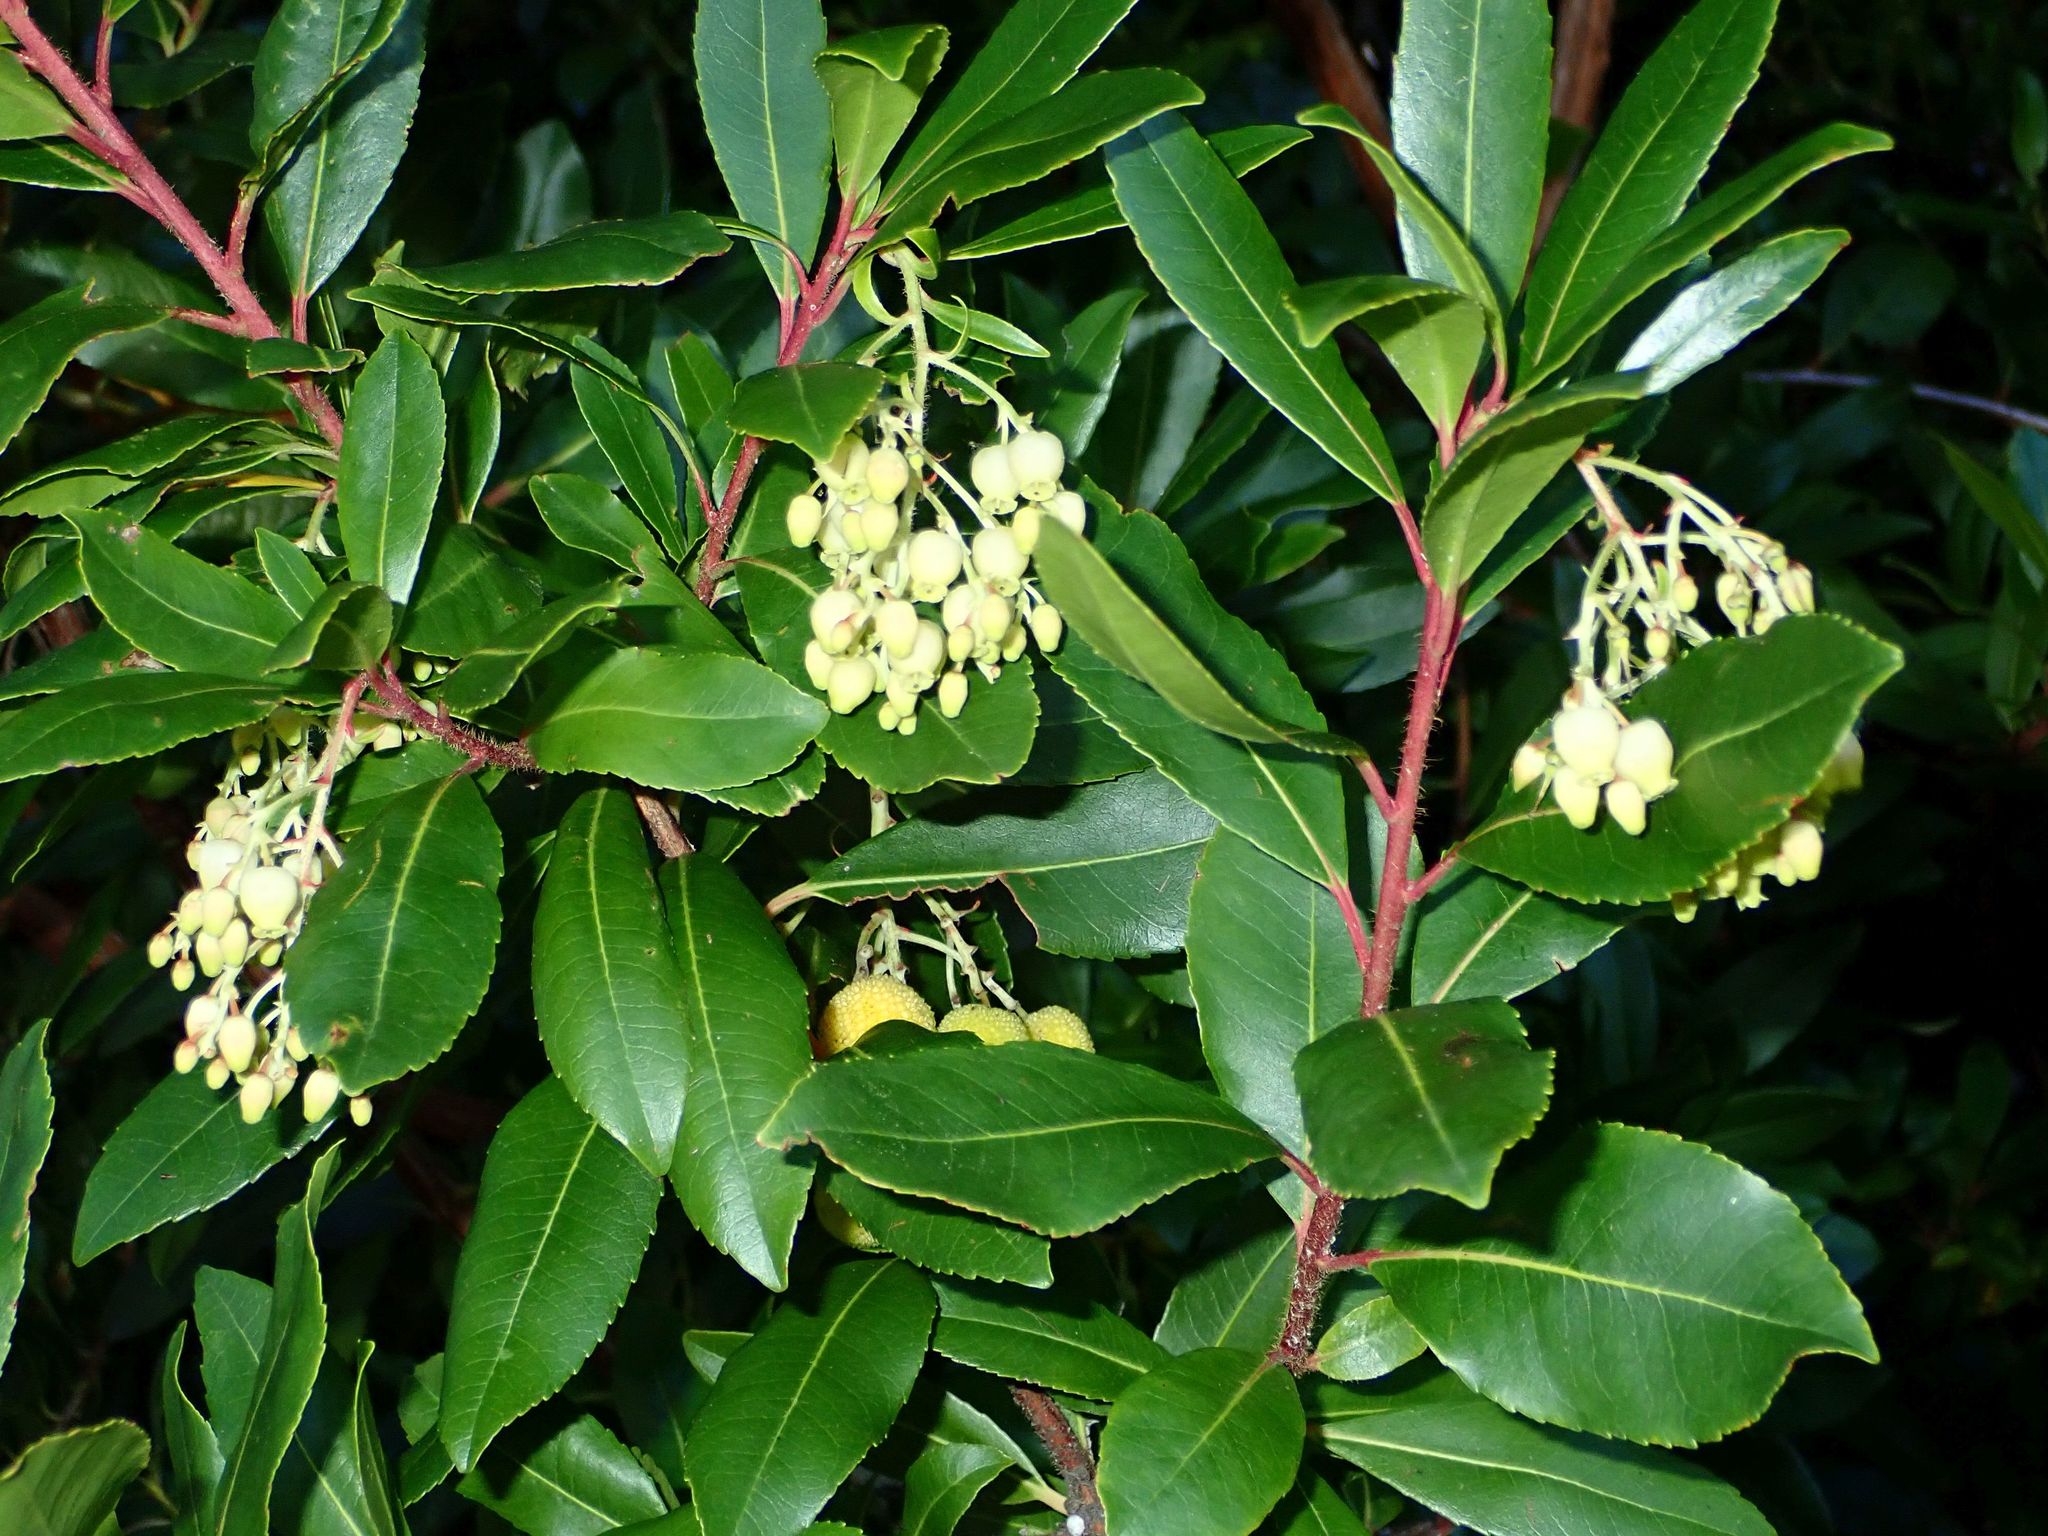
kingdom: Plantae
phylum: Tracheophyta
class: Magnoliopsida
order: Ericales
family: Ericaceae
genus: Arbutus
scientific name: Arbutus unedo
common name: Strawberry-tree
